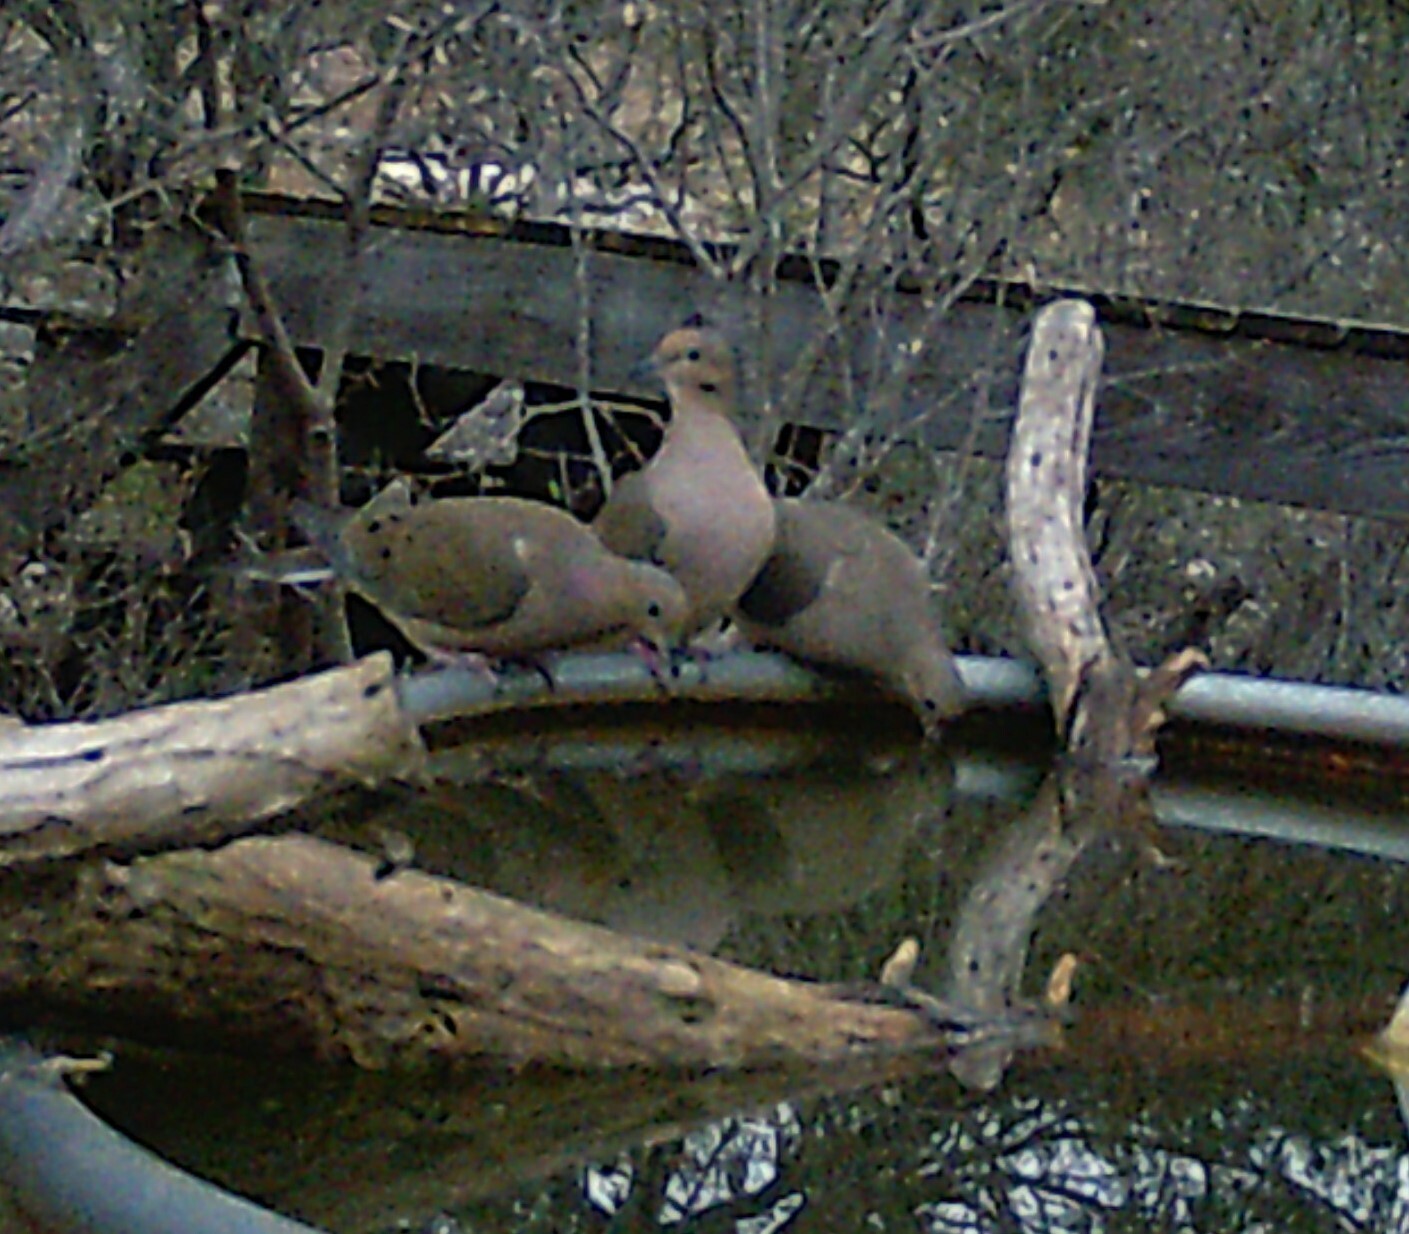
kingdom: Animalia
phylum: Chordata
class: Aves
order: Columbiformes
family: Columbidae
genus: Zenaida
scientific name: Zenaida macroura
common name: Mourning dove
